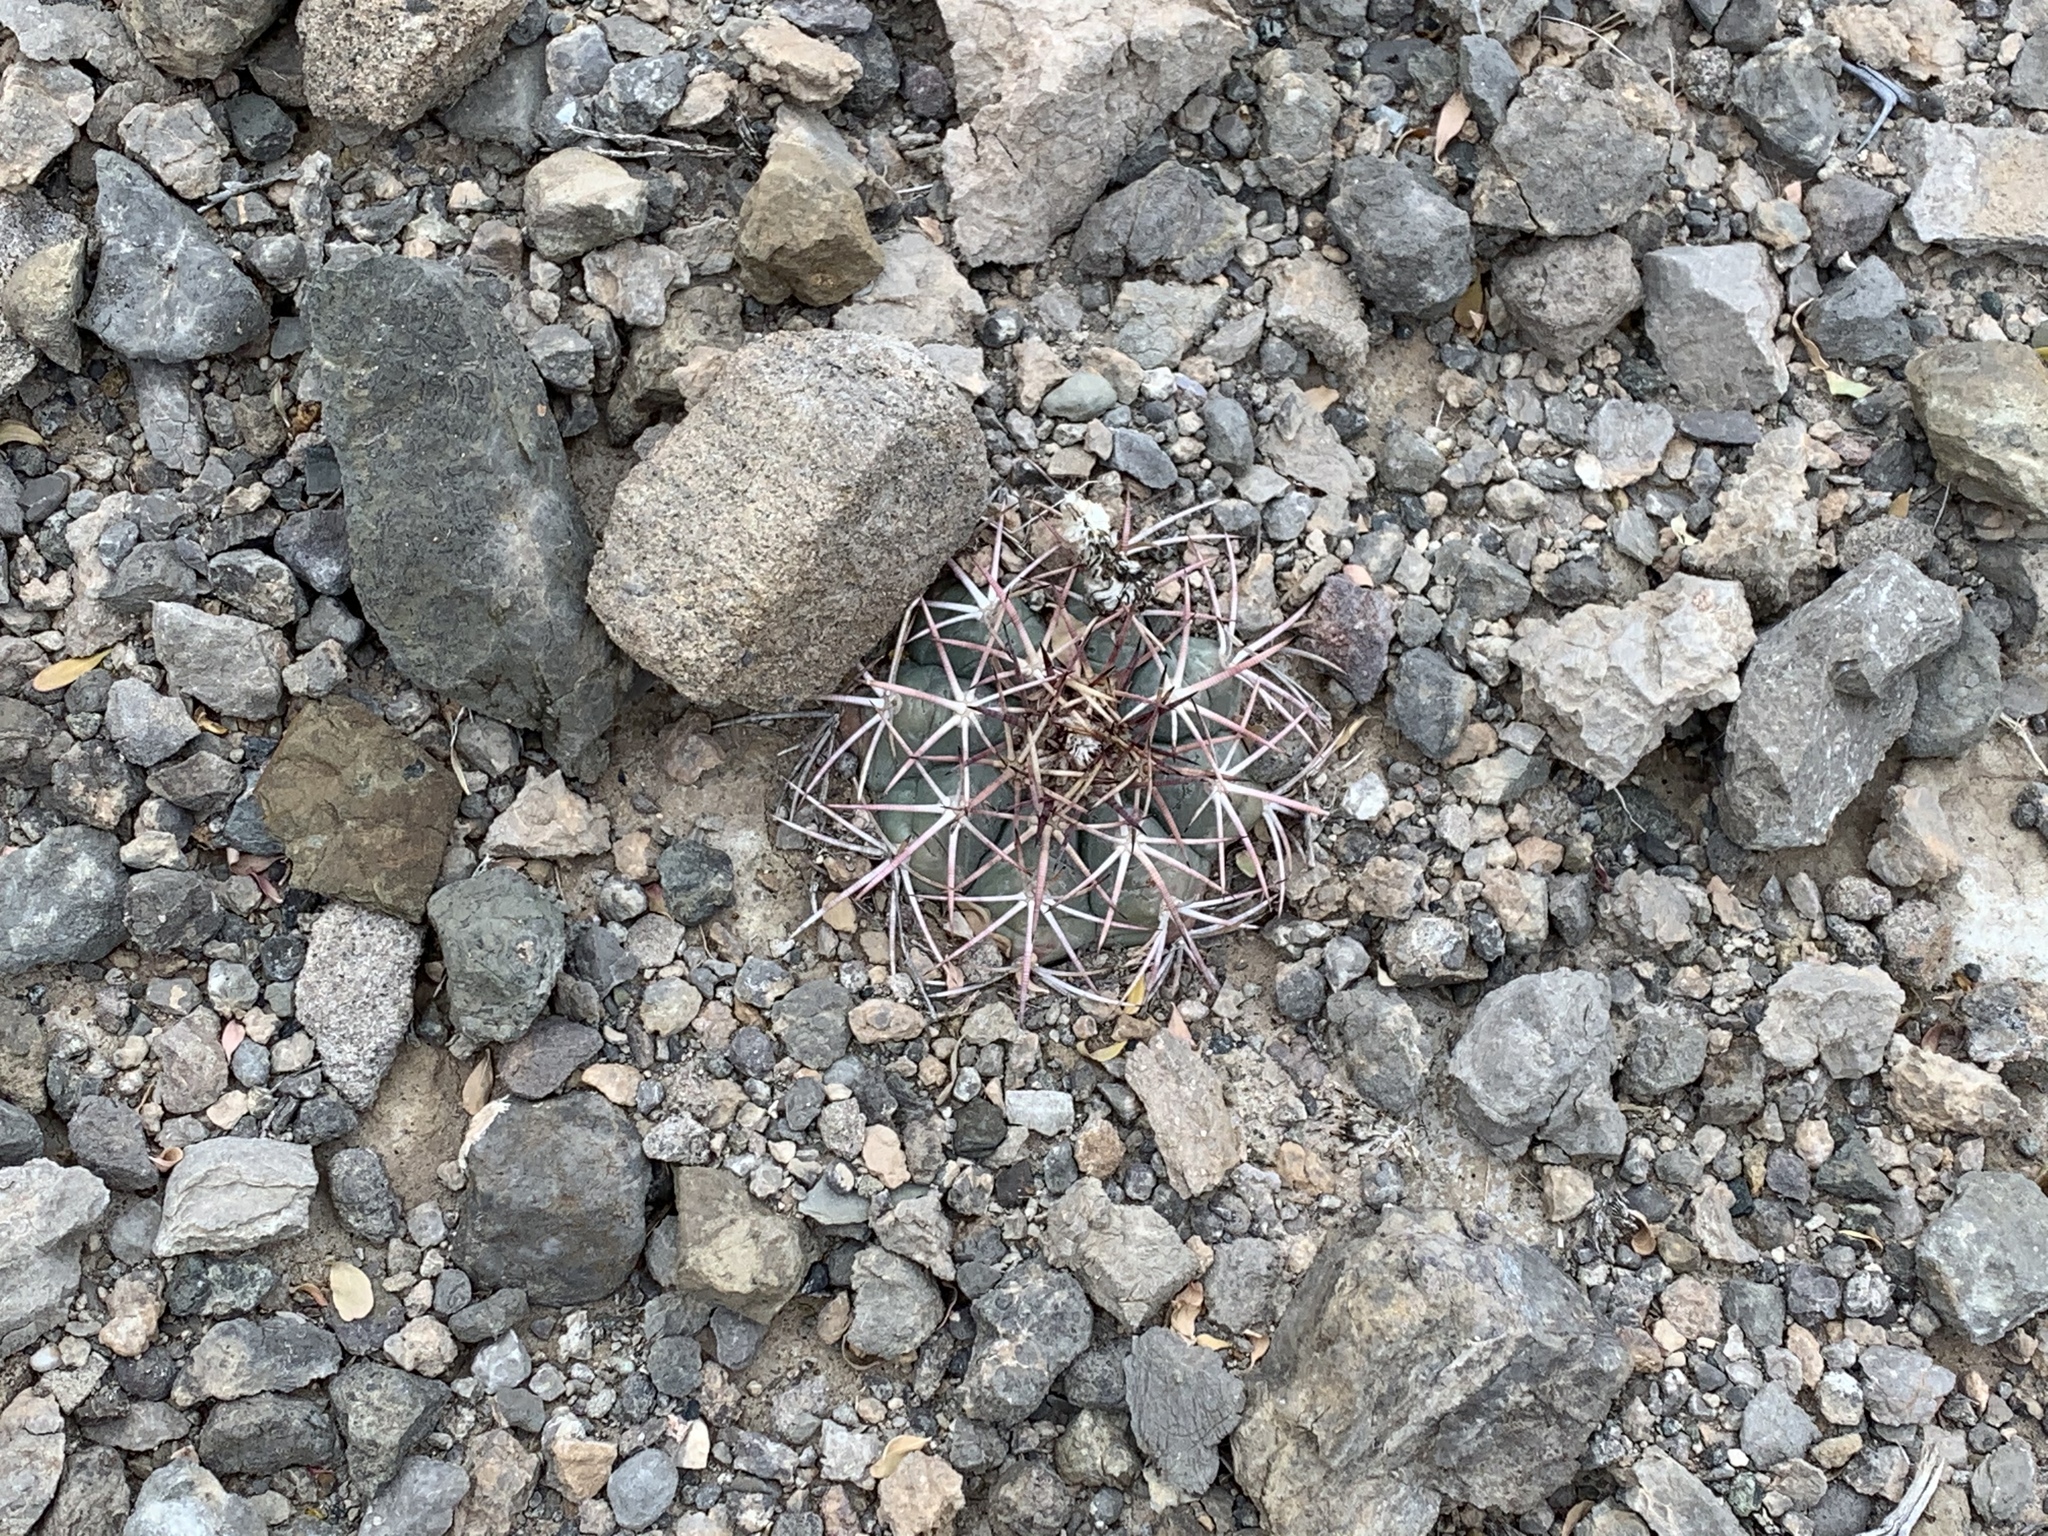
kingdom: Plantae
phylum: Tracheophyta
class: Magnoliopsida
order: Caryophyllales
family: Cactaceae
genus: Echinocactus
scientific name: Echinocactus horizonthalonius
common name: Devilshead
